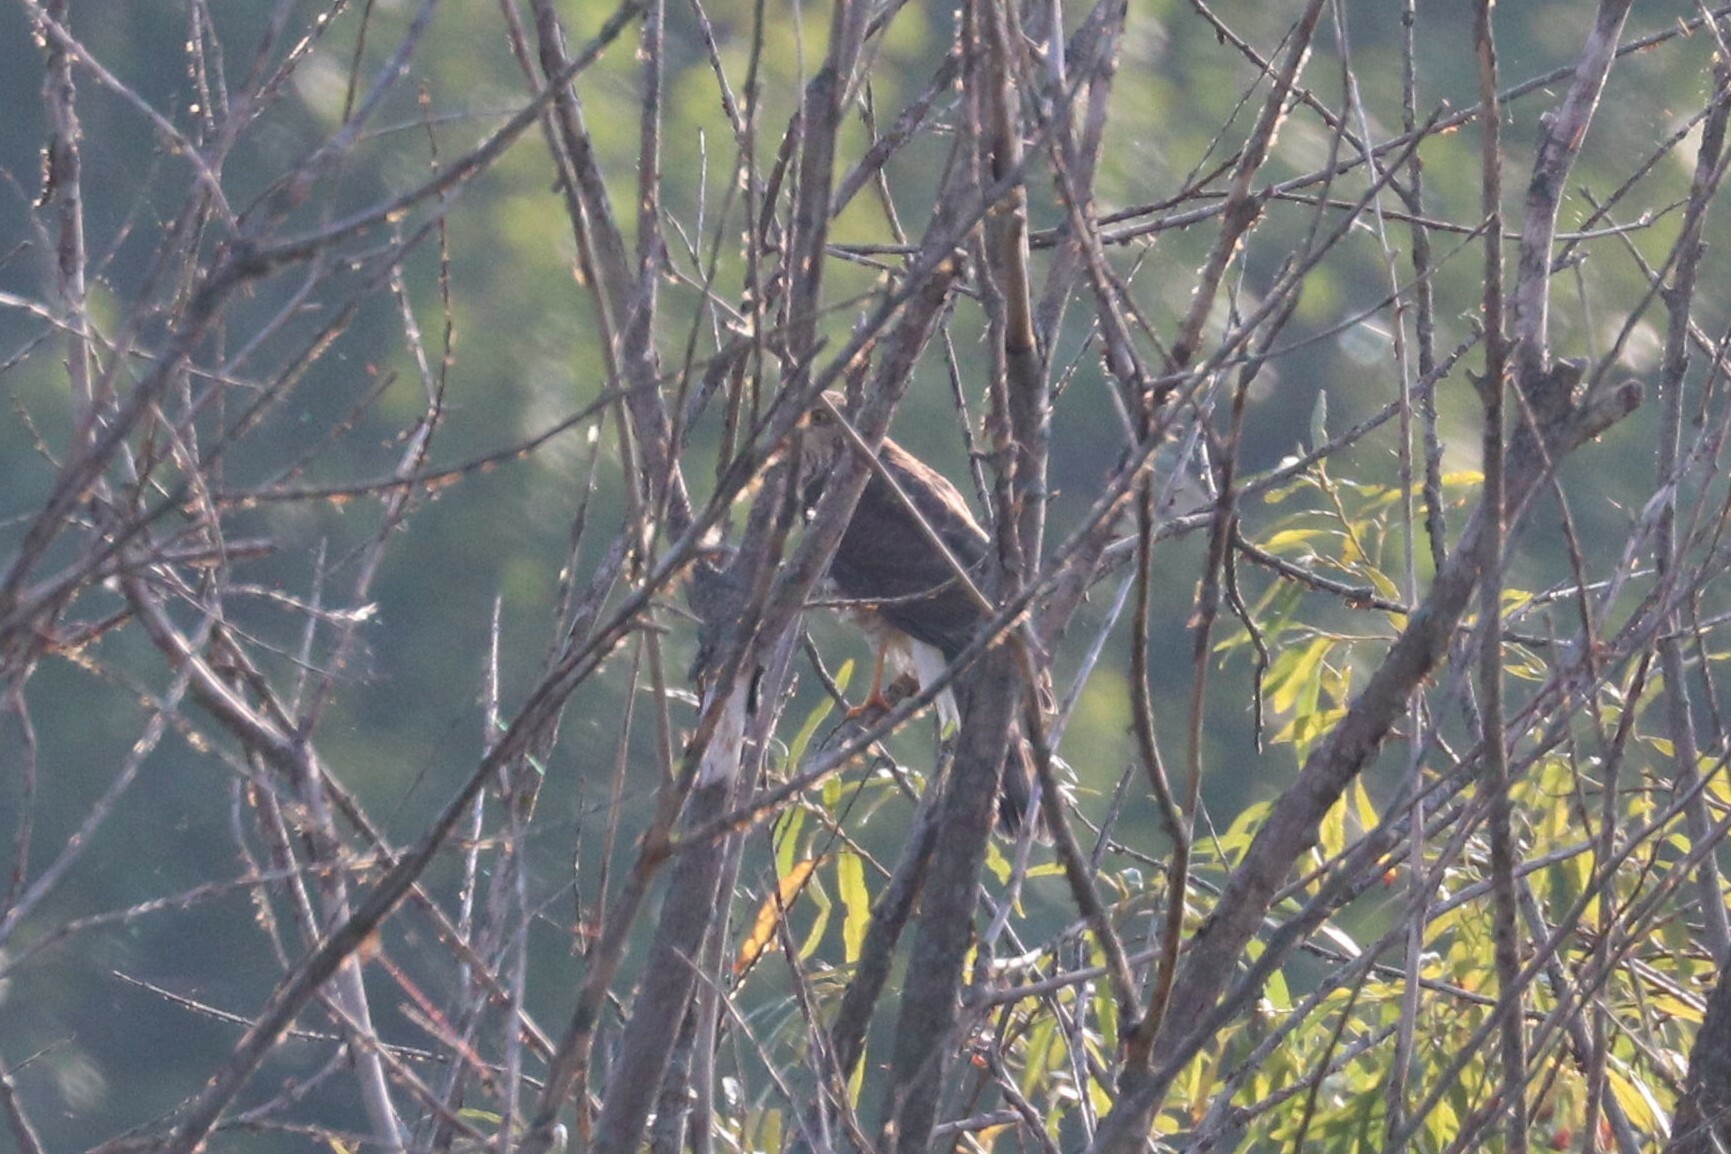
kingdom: Animalia
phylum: Chordata
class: Aves
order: Accipitriformes
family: Accipitridae
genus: Accipiter
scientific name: Accipiter nisus
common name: Eurasian sparrowhawk
